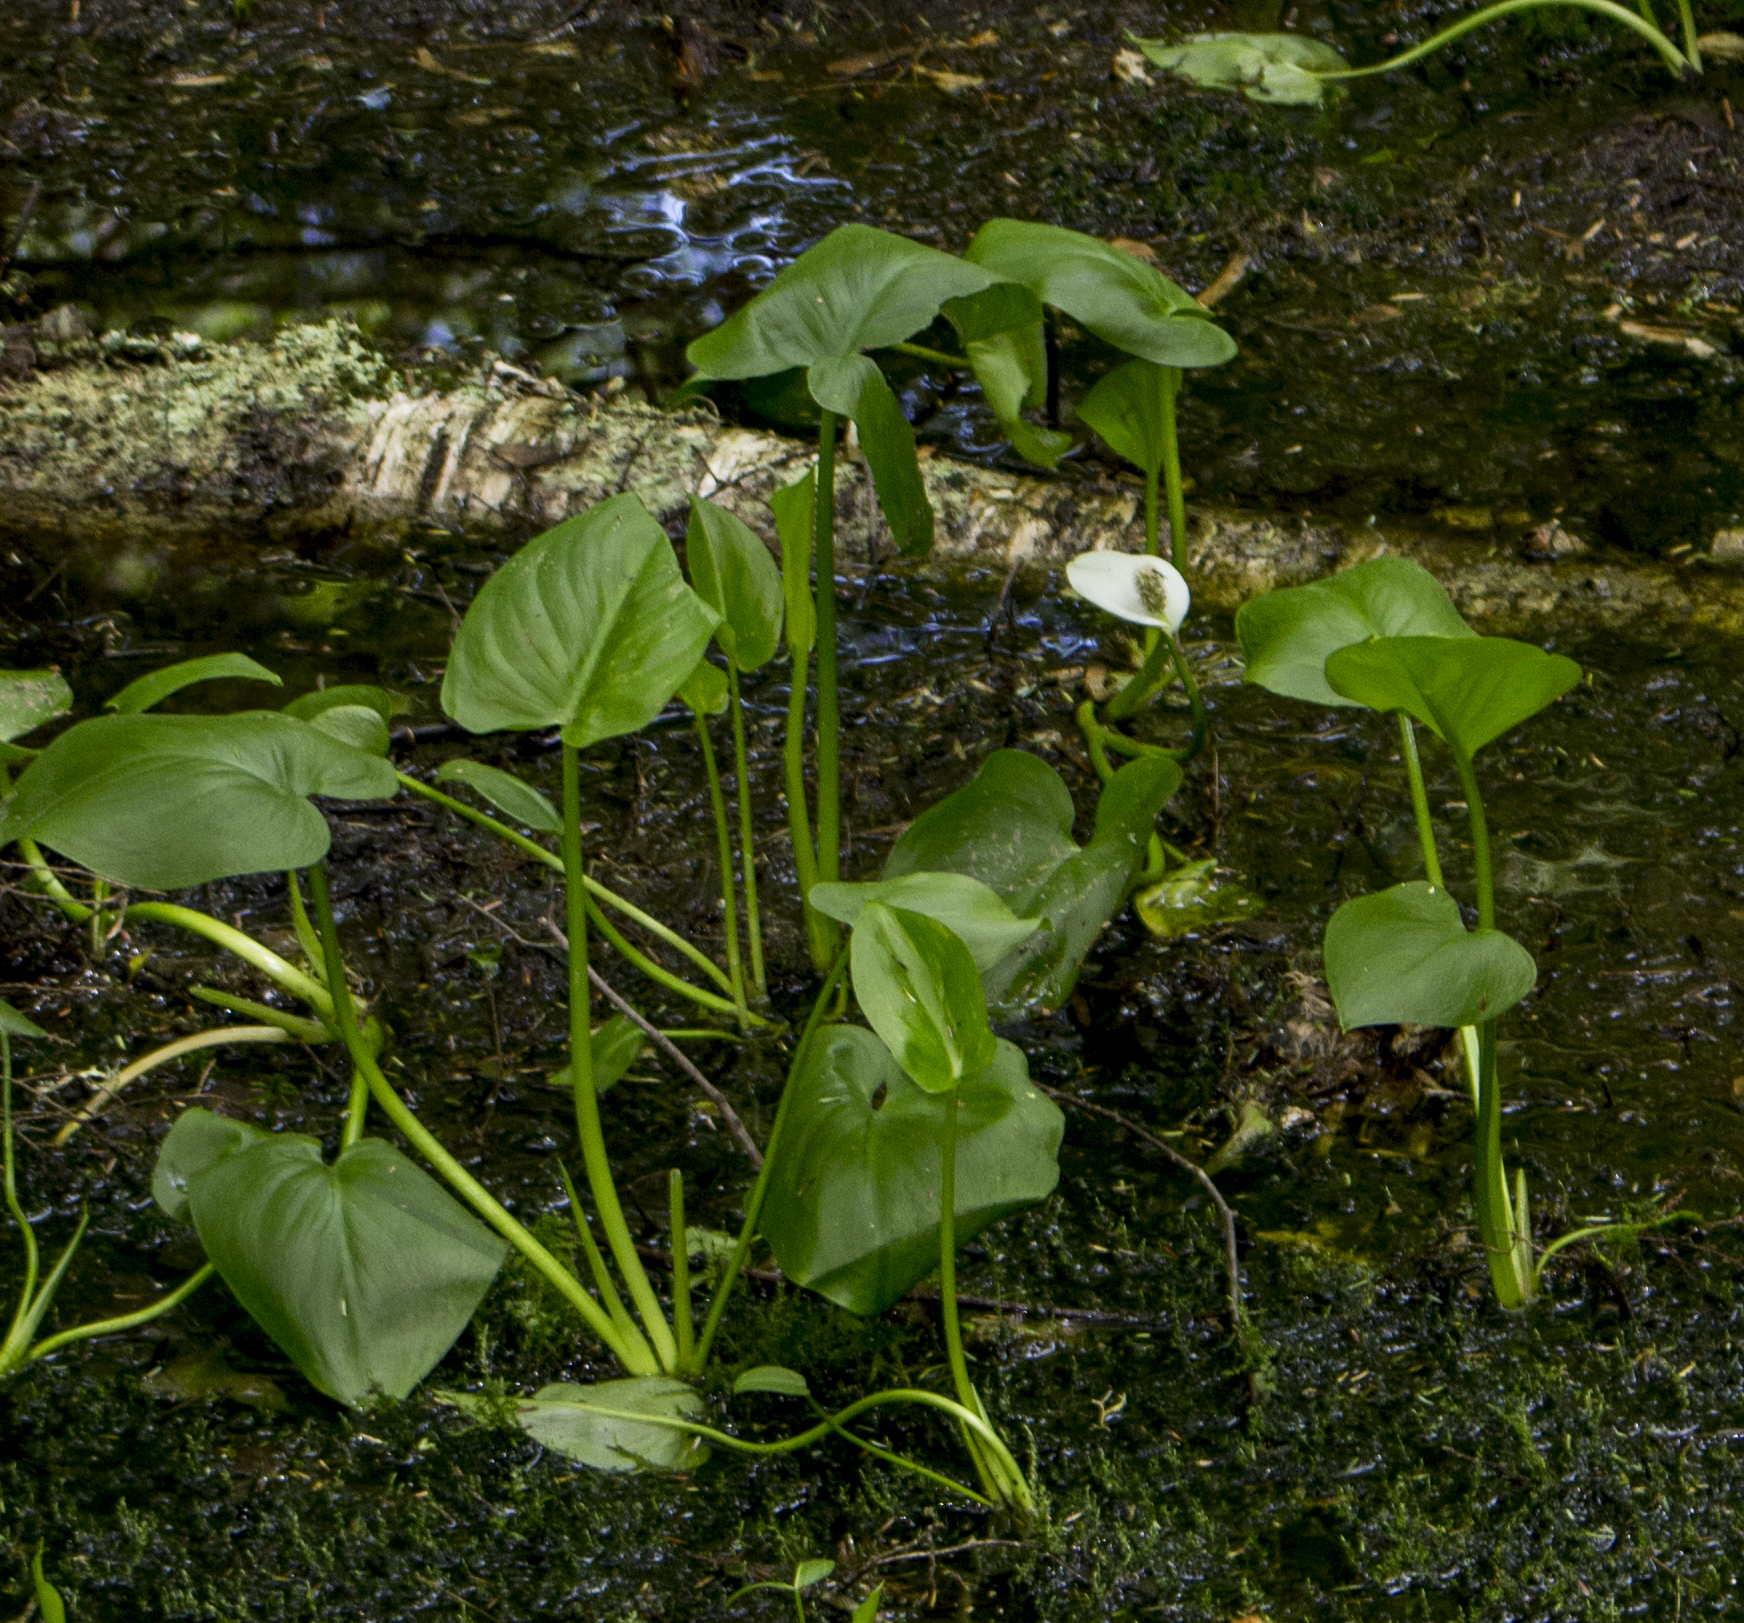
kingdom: Plantae
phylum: Tracheophyta
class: Liliopsida
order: Alismatales
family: Araceae
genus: Calla
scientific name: Calla palustris
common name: Bog arum
